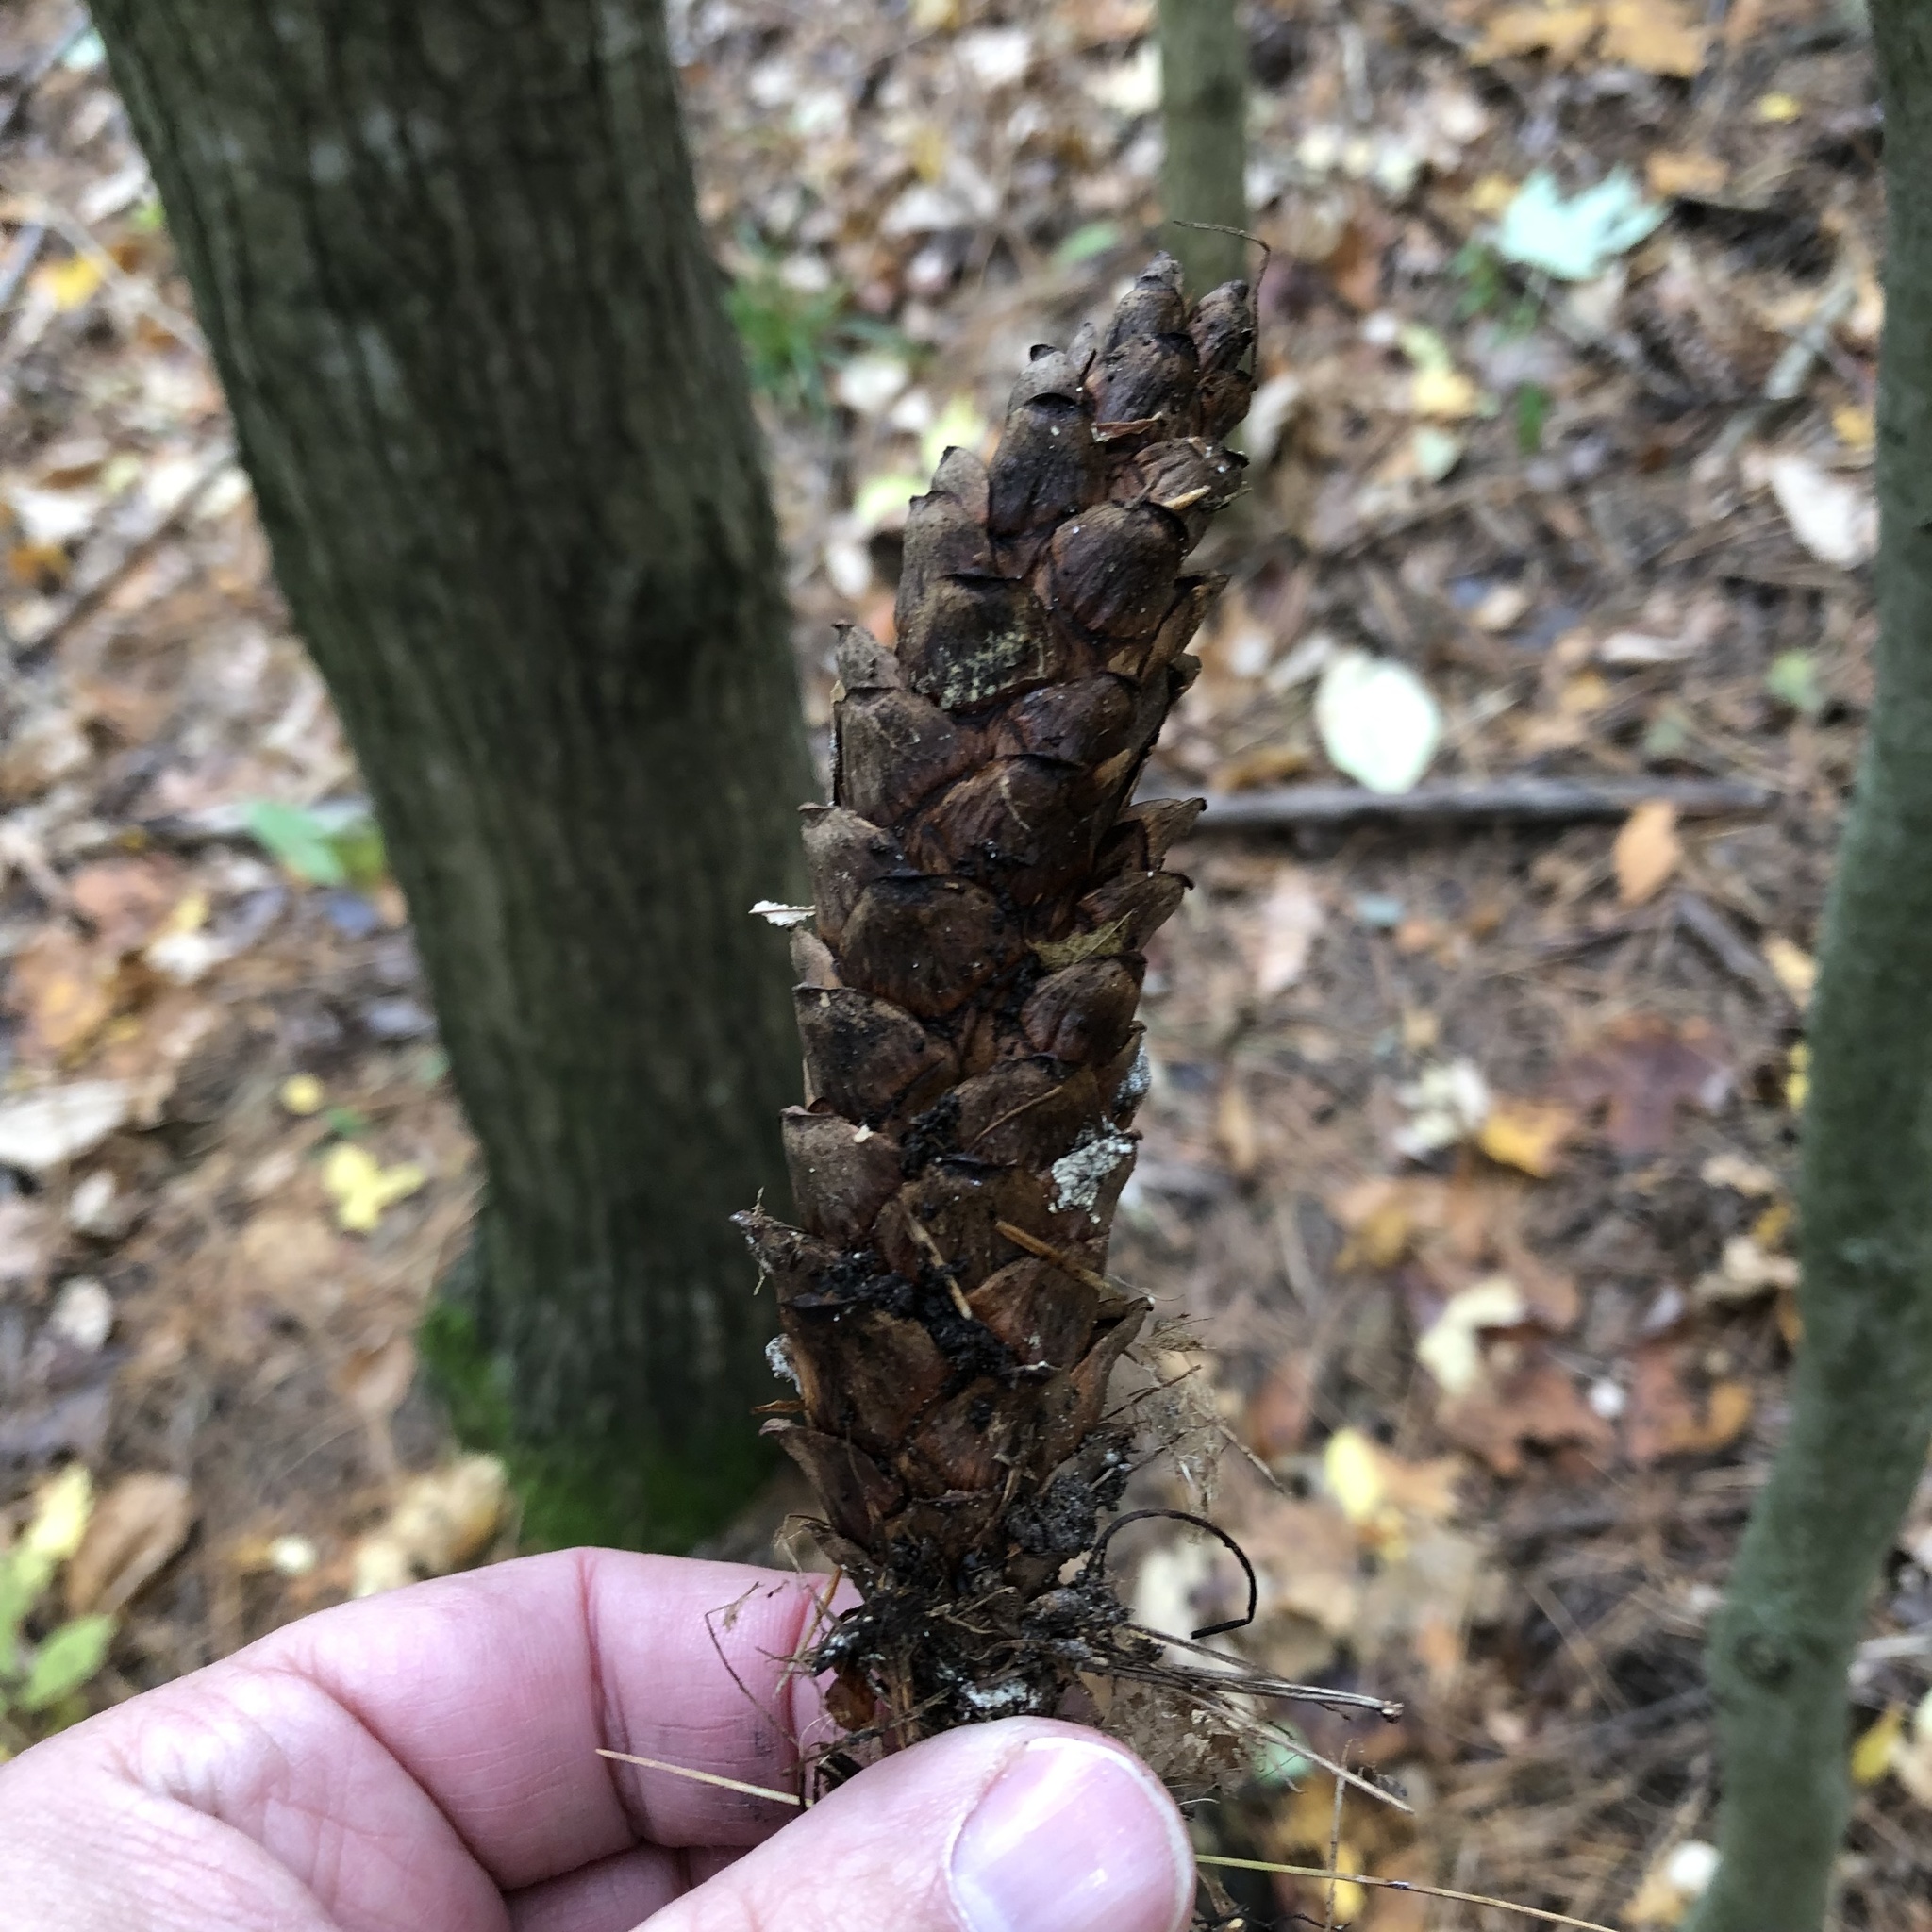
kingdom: Plantae
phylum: Tracheophyta
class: Pinopsida
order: Pinales
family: Pinaceae
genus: Pinus
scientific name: Pinus strobus
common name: Weymouth pine
